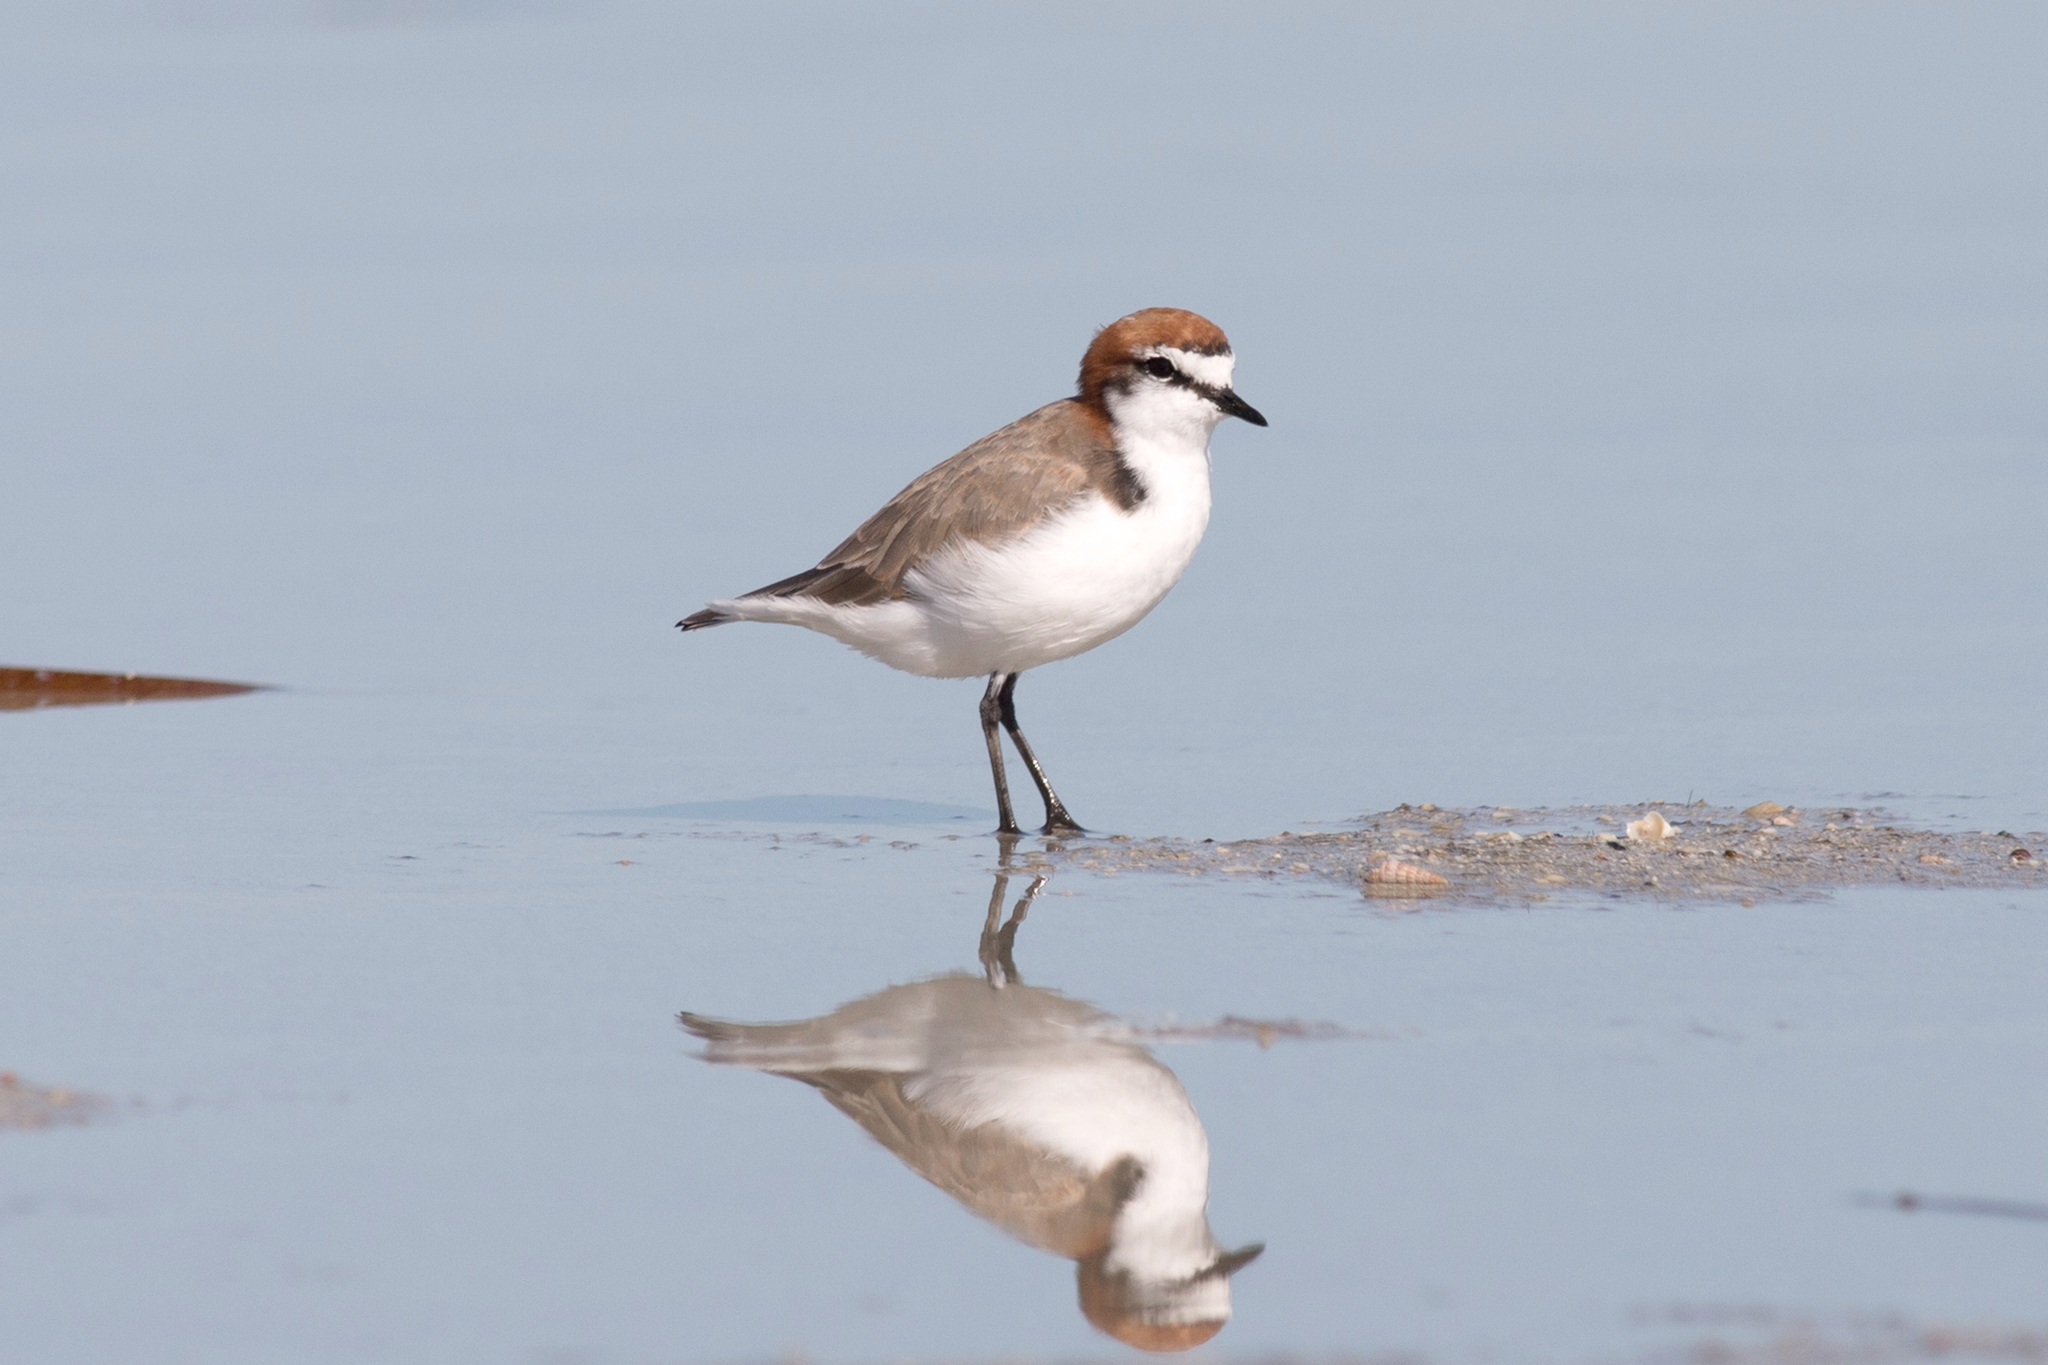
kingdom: Animalia
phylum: Chordata
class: Aves
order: Charadriiformes
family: Charadriidae
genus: Anarhynchus
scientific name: Anarhynchus
